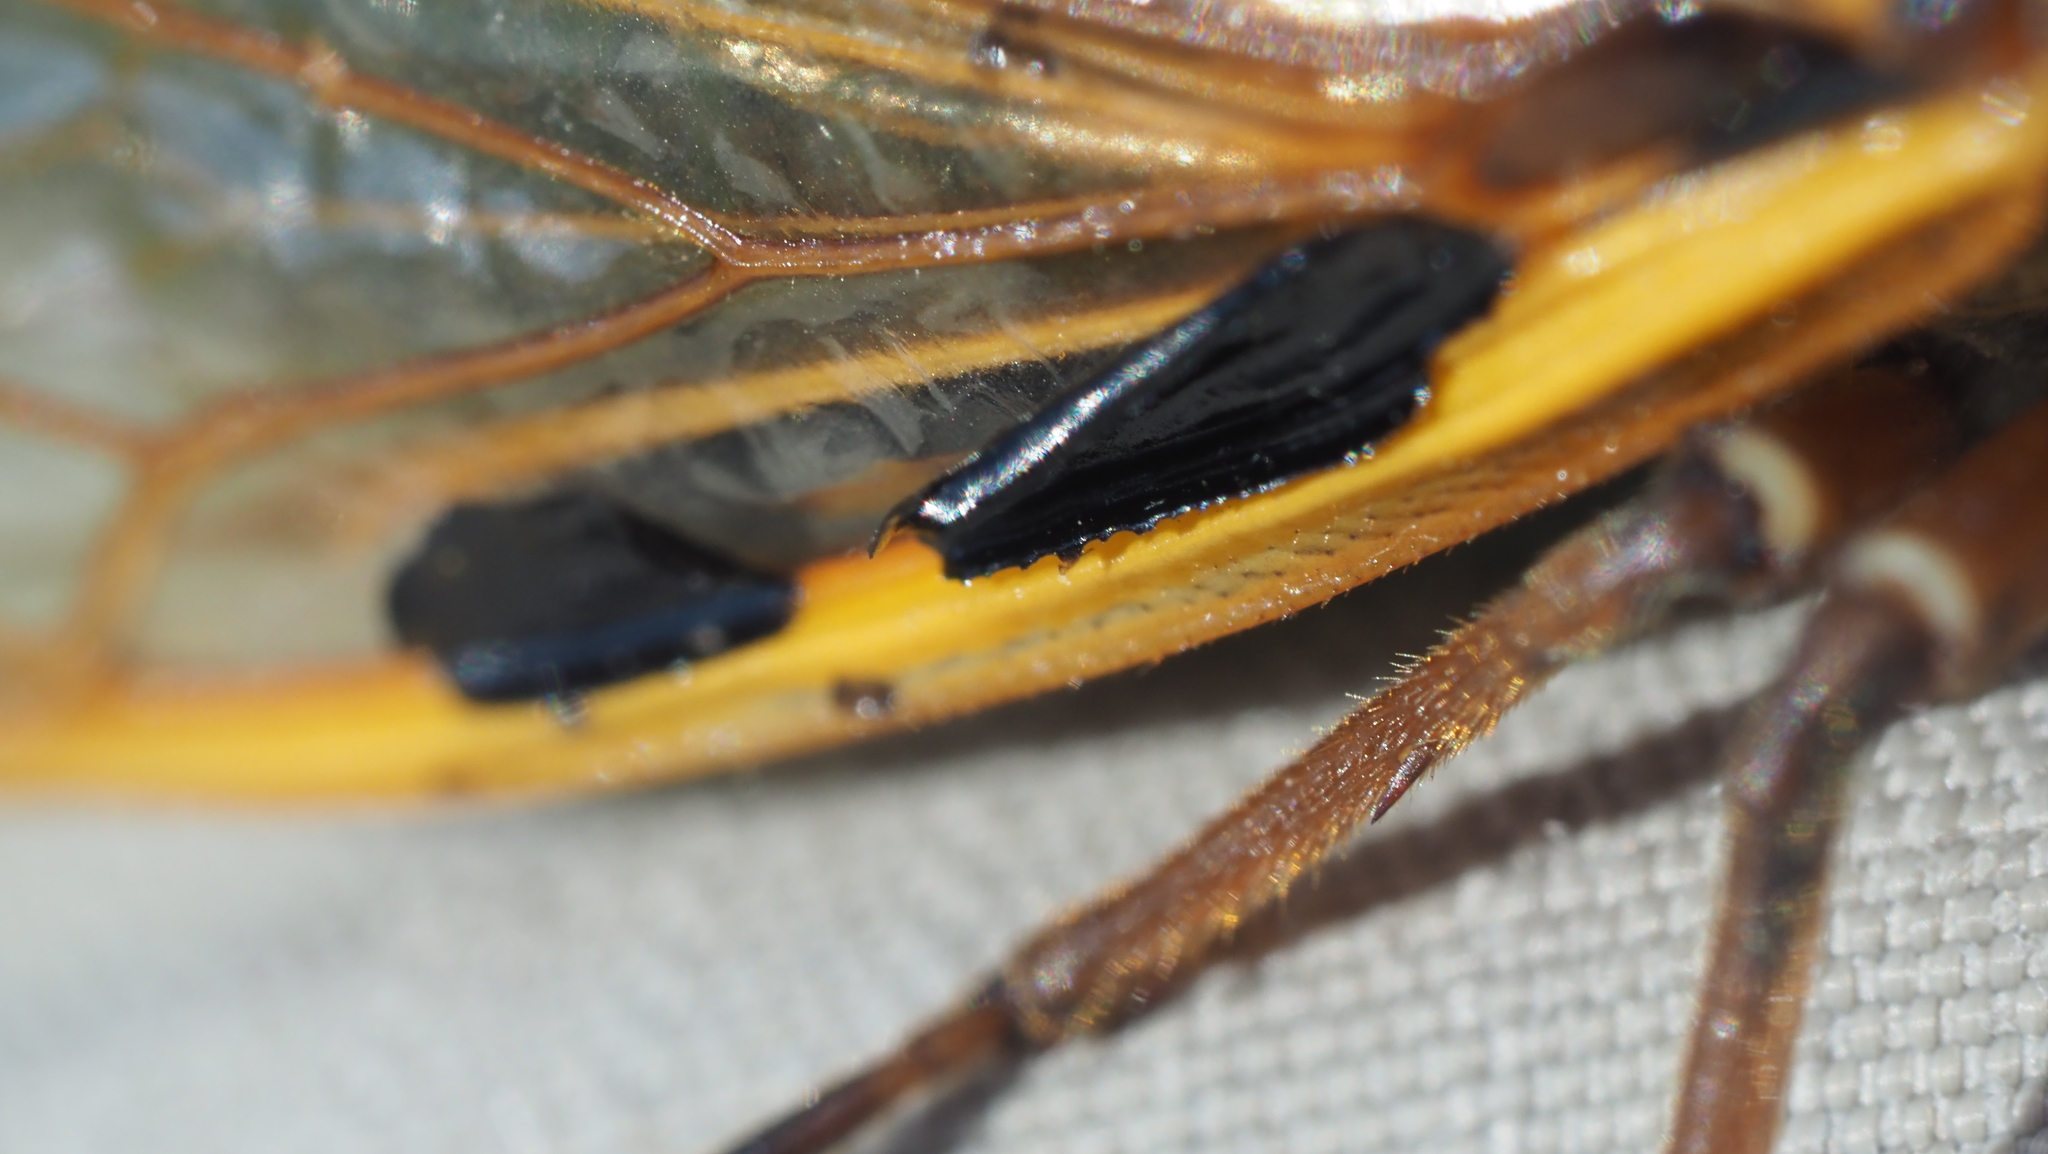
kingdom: Animalia
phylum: Arthropoda
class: Insecta
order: Hemiptera
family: Cicadidae
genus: Magicicada
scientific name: Magicicada septendecim
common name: Periodical cicada
